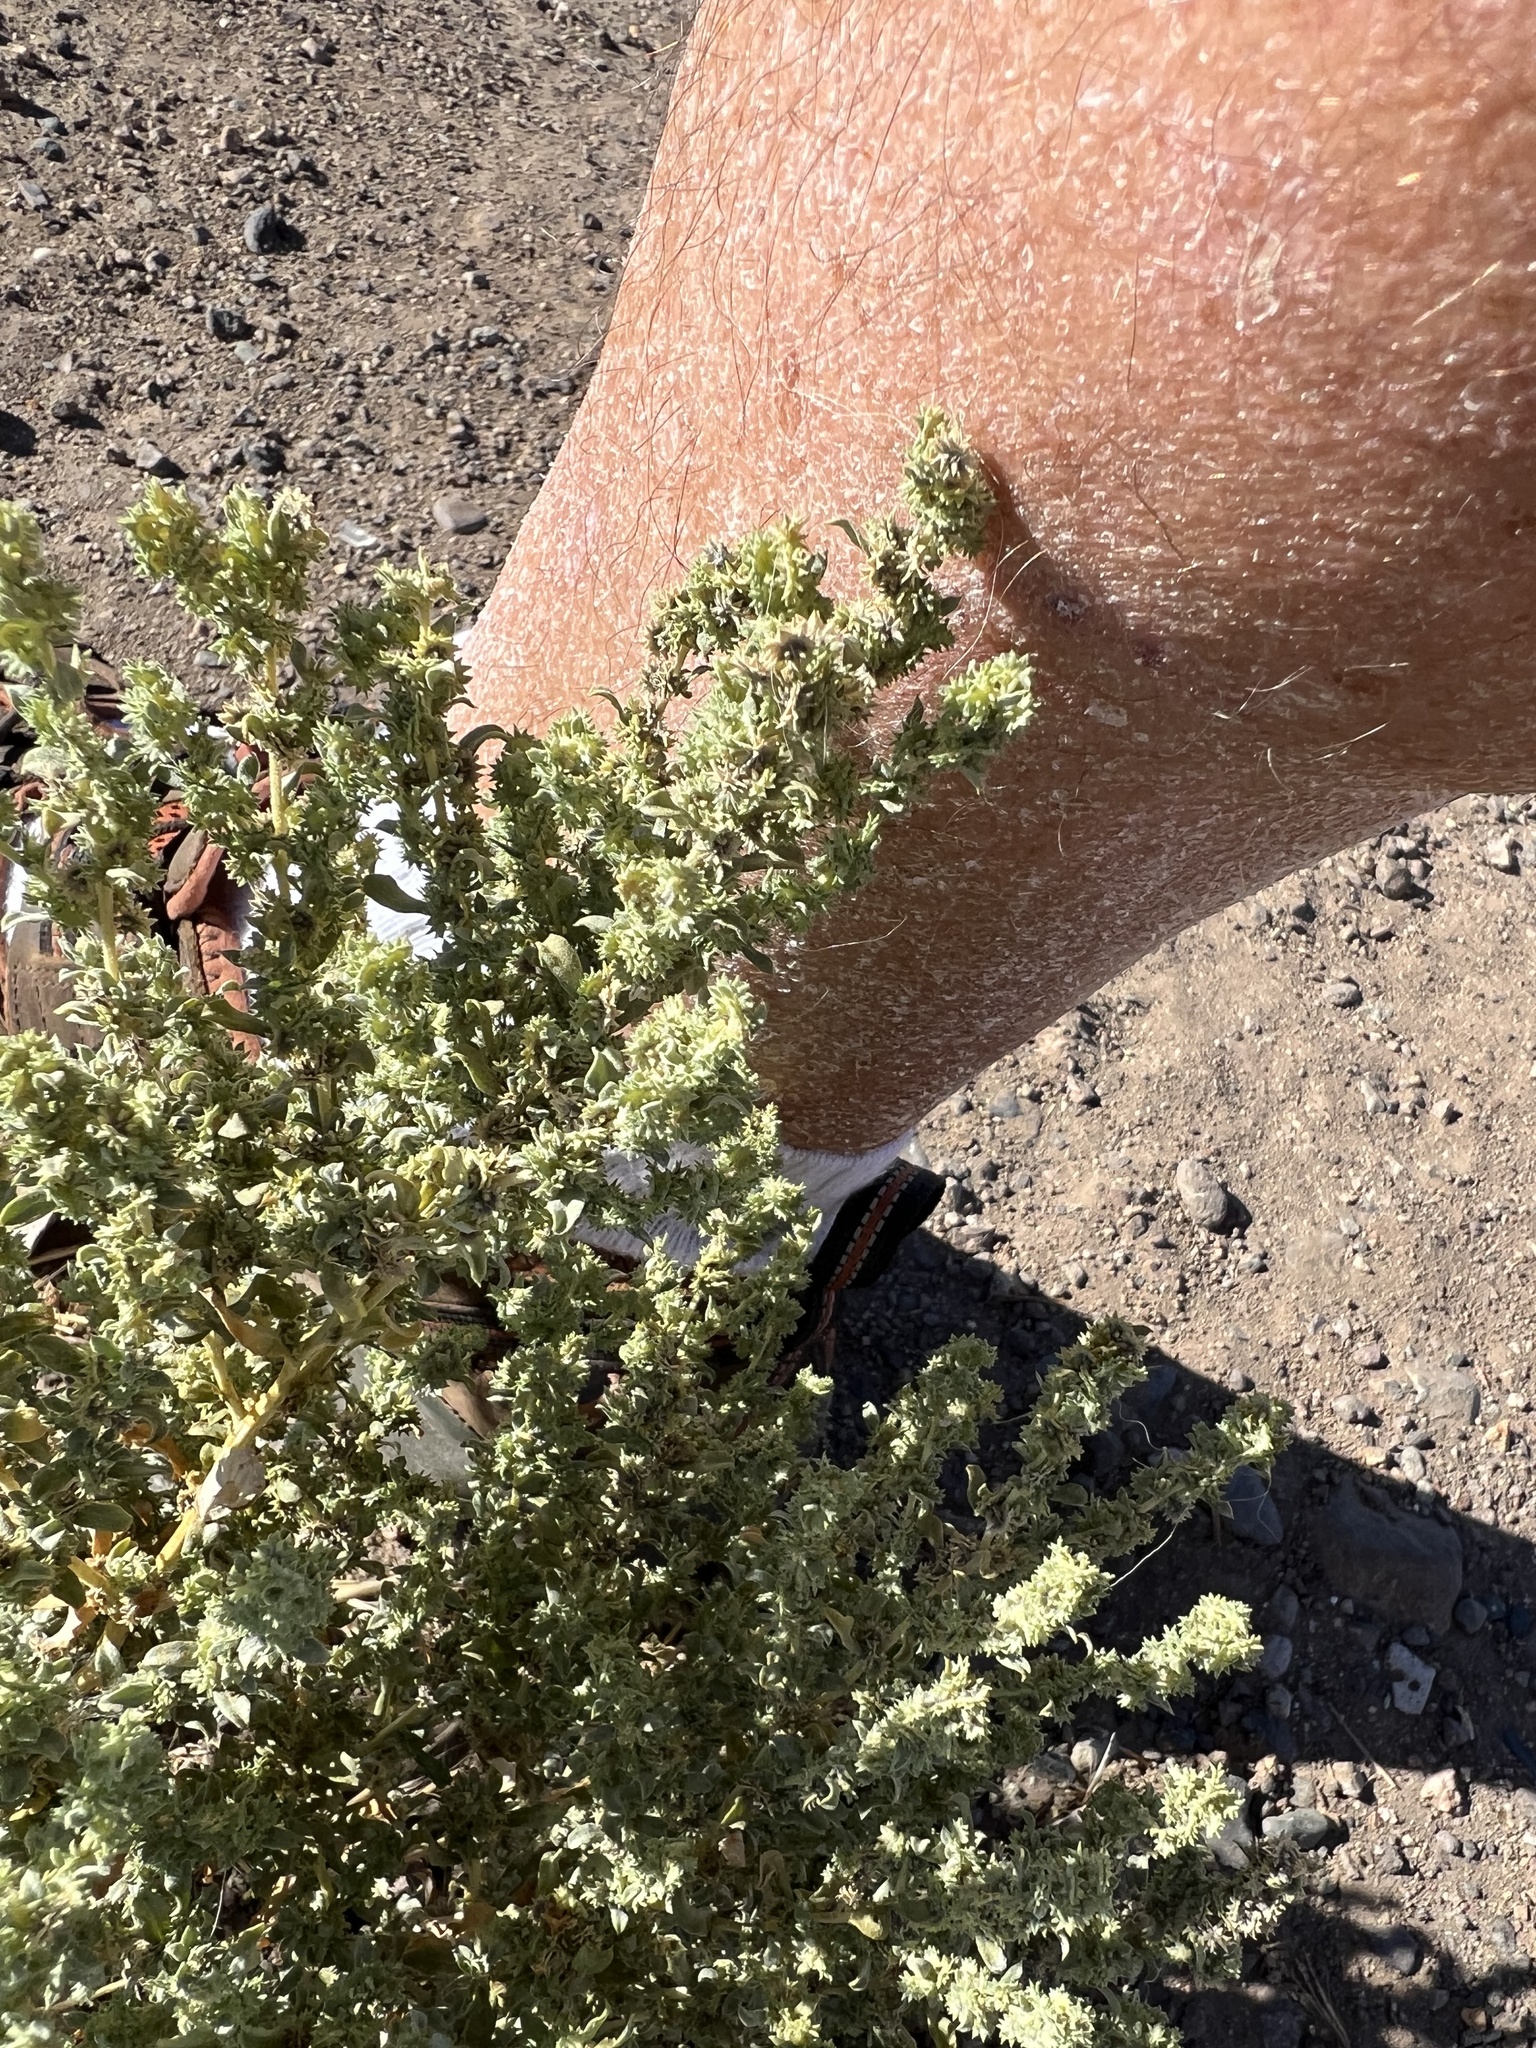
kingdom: Plantae
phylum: Tracheophyta
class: Magnoliopsida
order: Caryophyllales
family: Amaranthaceae
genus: Atriplex
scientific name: Atriplex elegans
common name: Wheelscale orach
